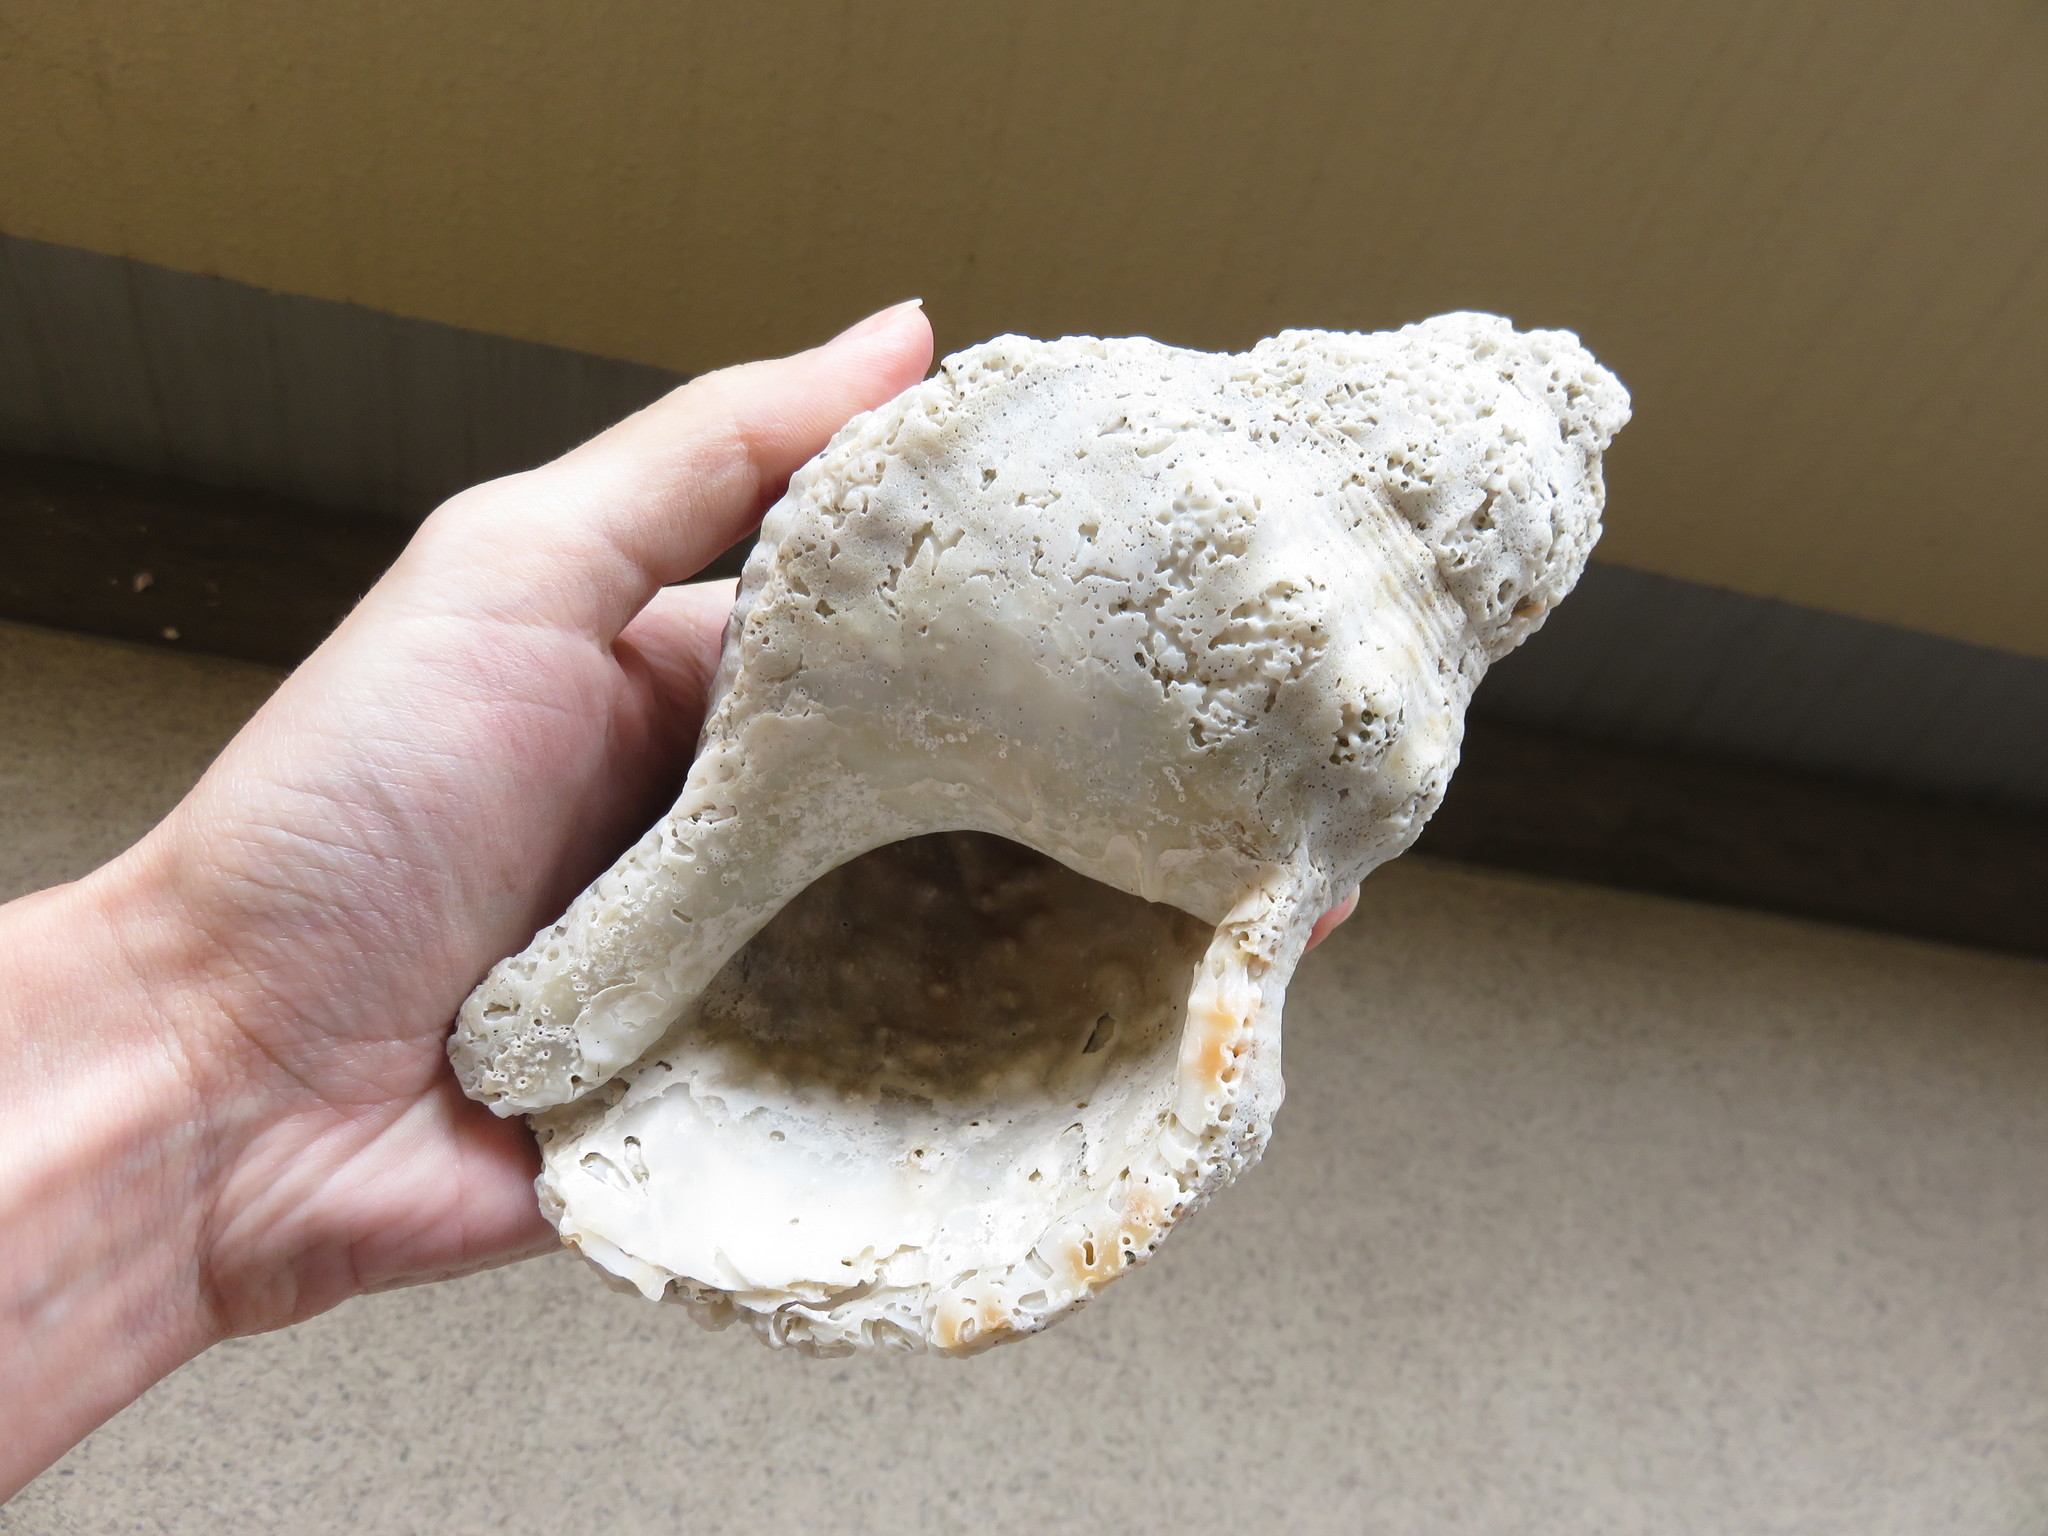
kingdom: Animalia
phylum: Mollusca
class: Gastropoda
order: Littorinimorpha
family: Charoniidae
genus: Charonia
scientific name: Charonia lampas
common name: Knobbed triton
